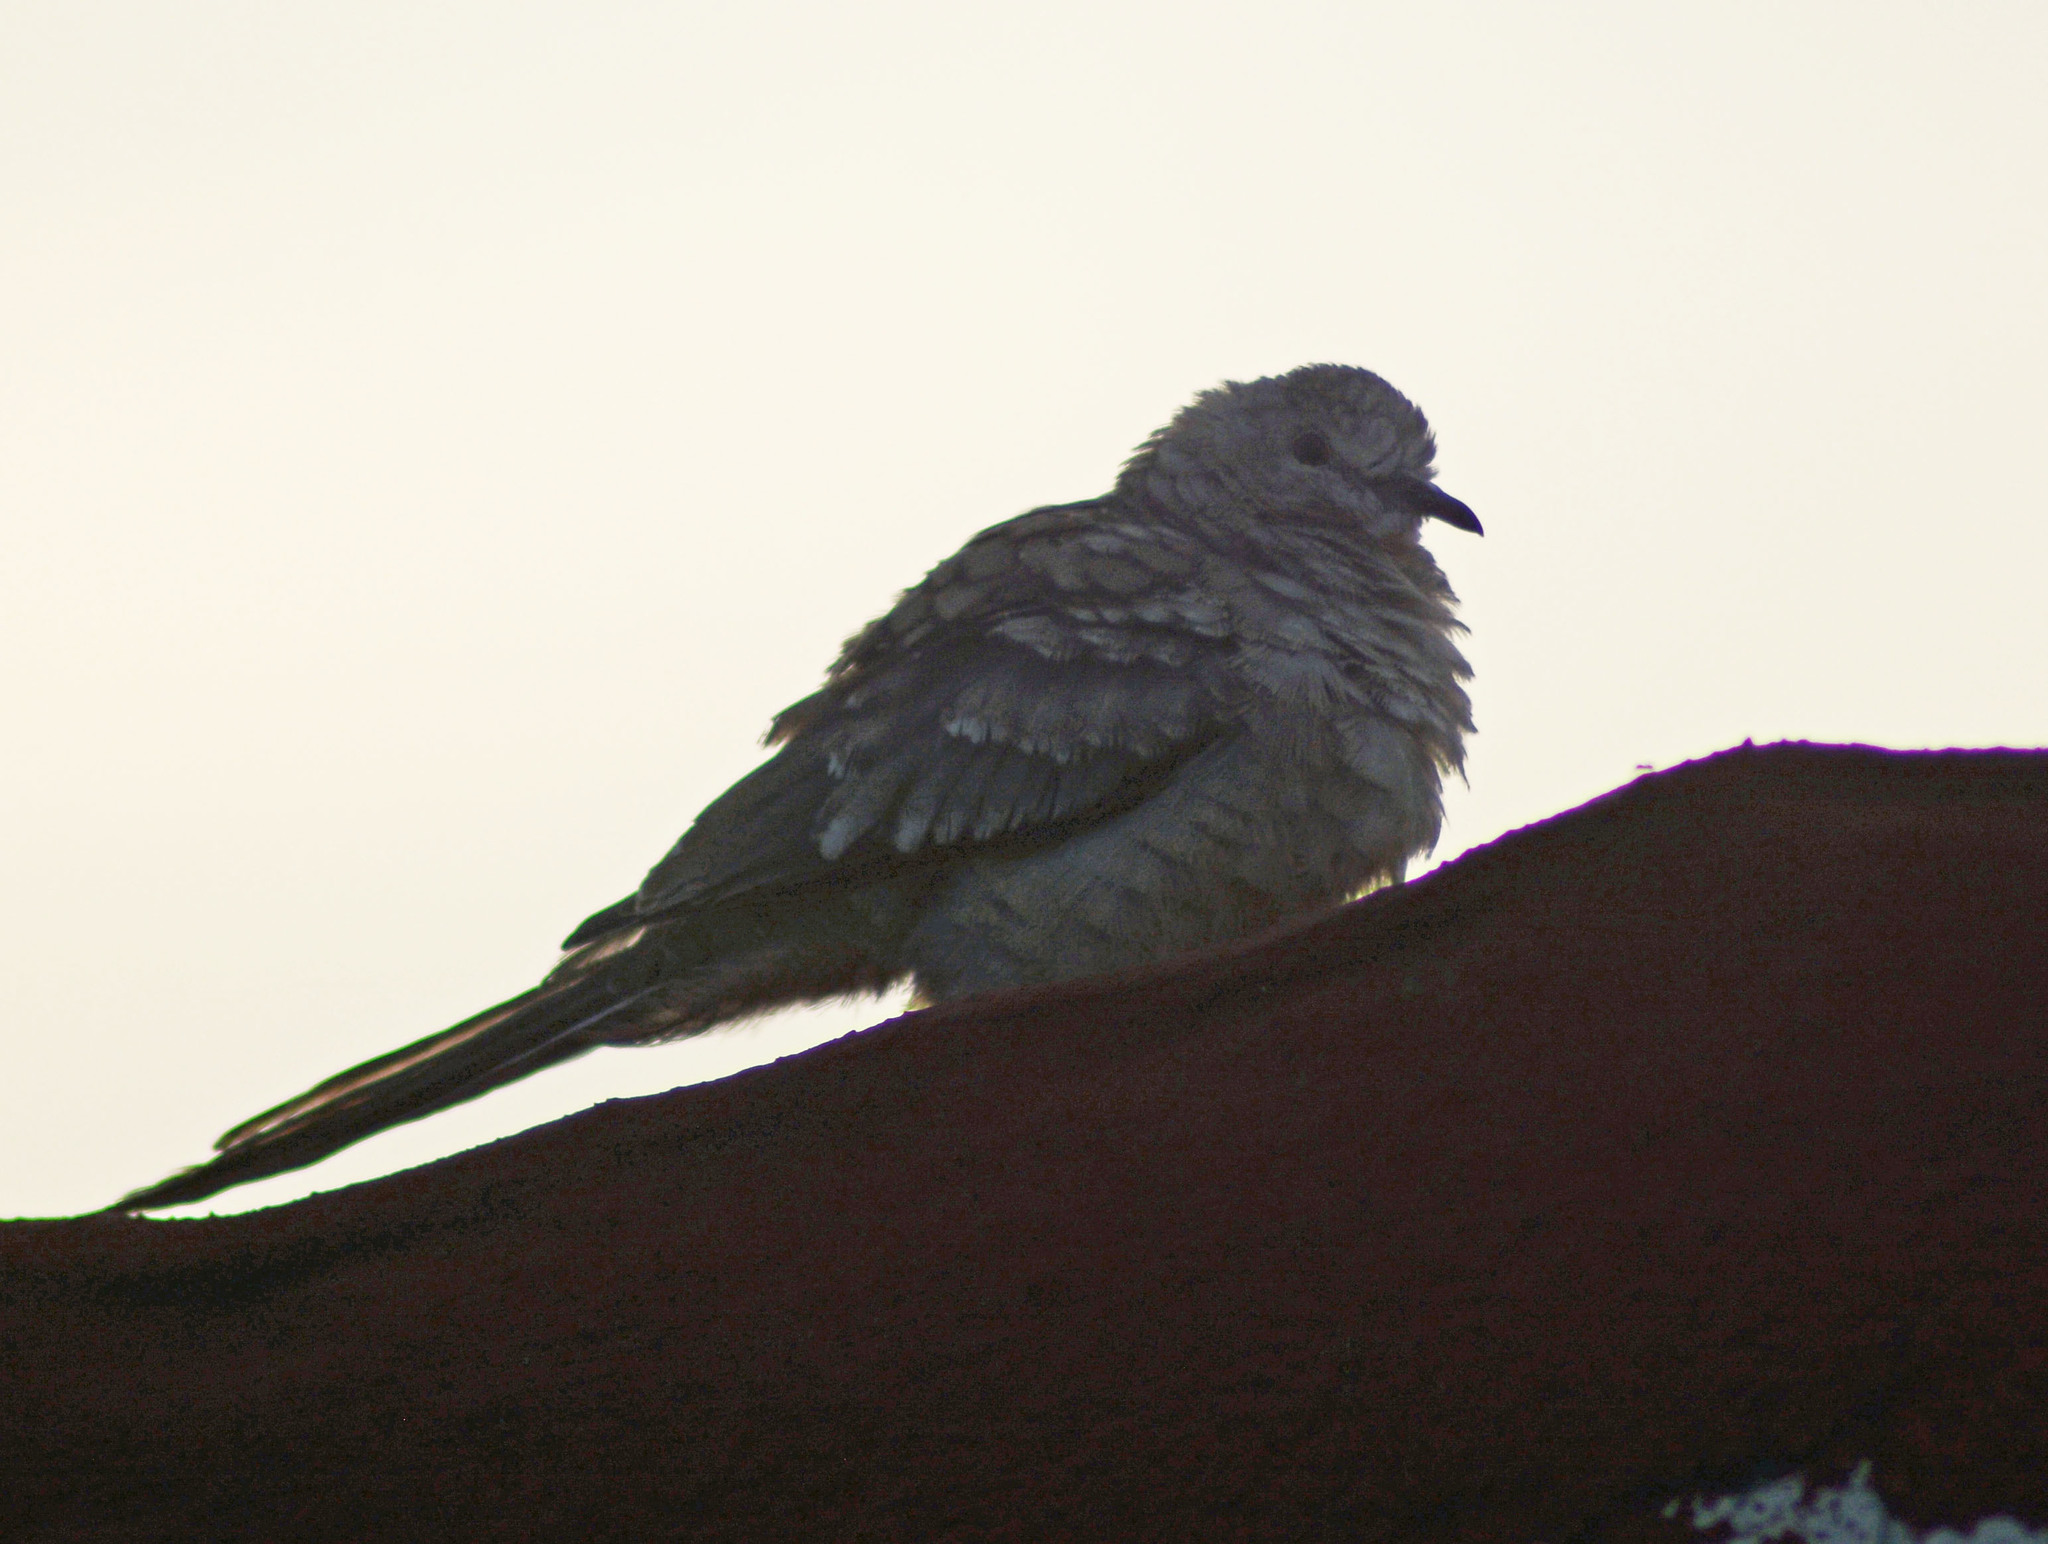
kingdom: Animalia
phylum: Chordata
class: Aves
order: Columbiformes
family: Columbidae
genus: Columbina
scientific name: Columbina inca
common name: Inca dove
